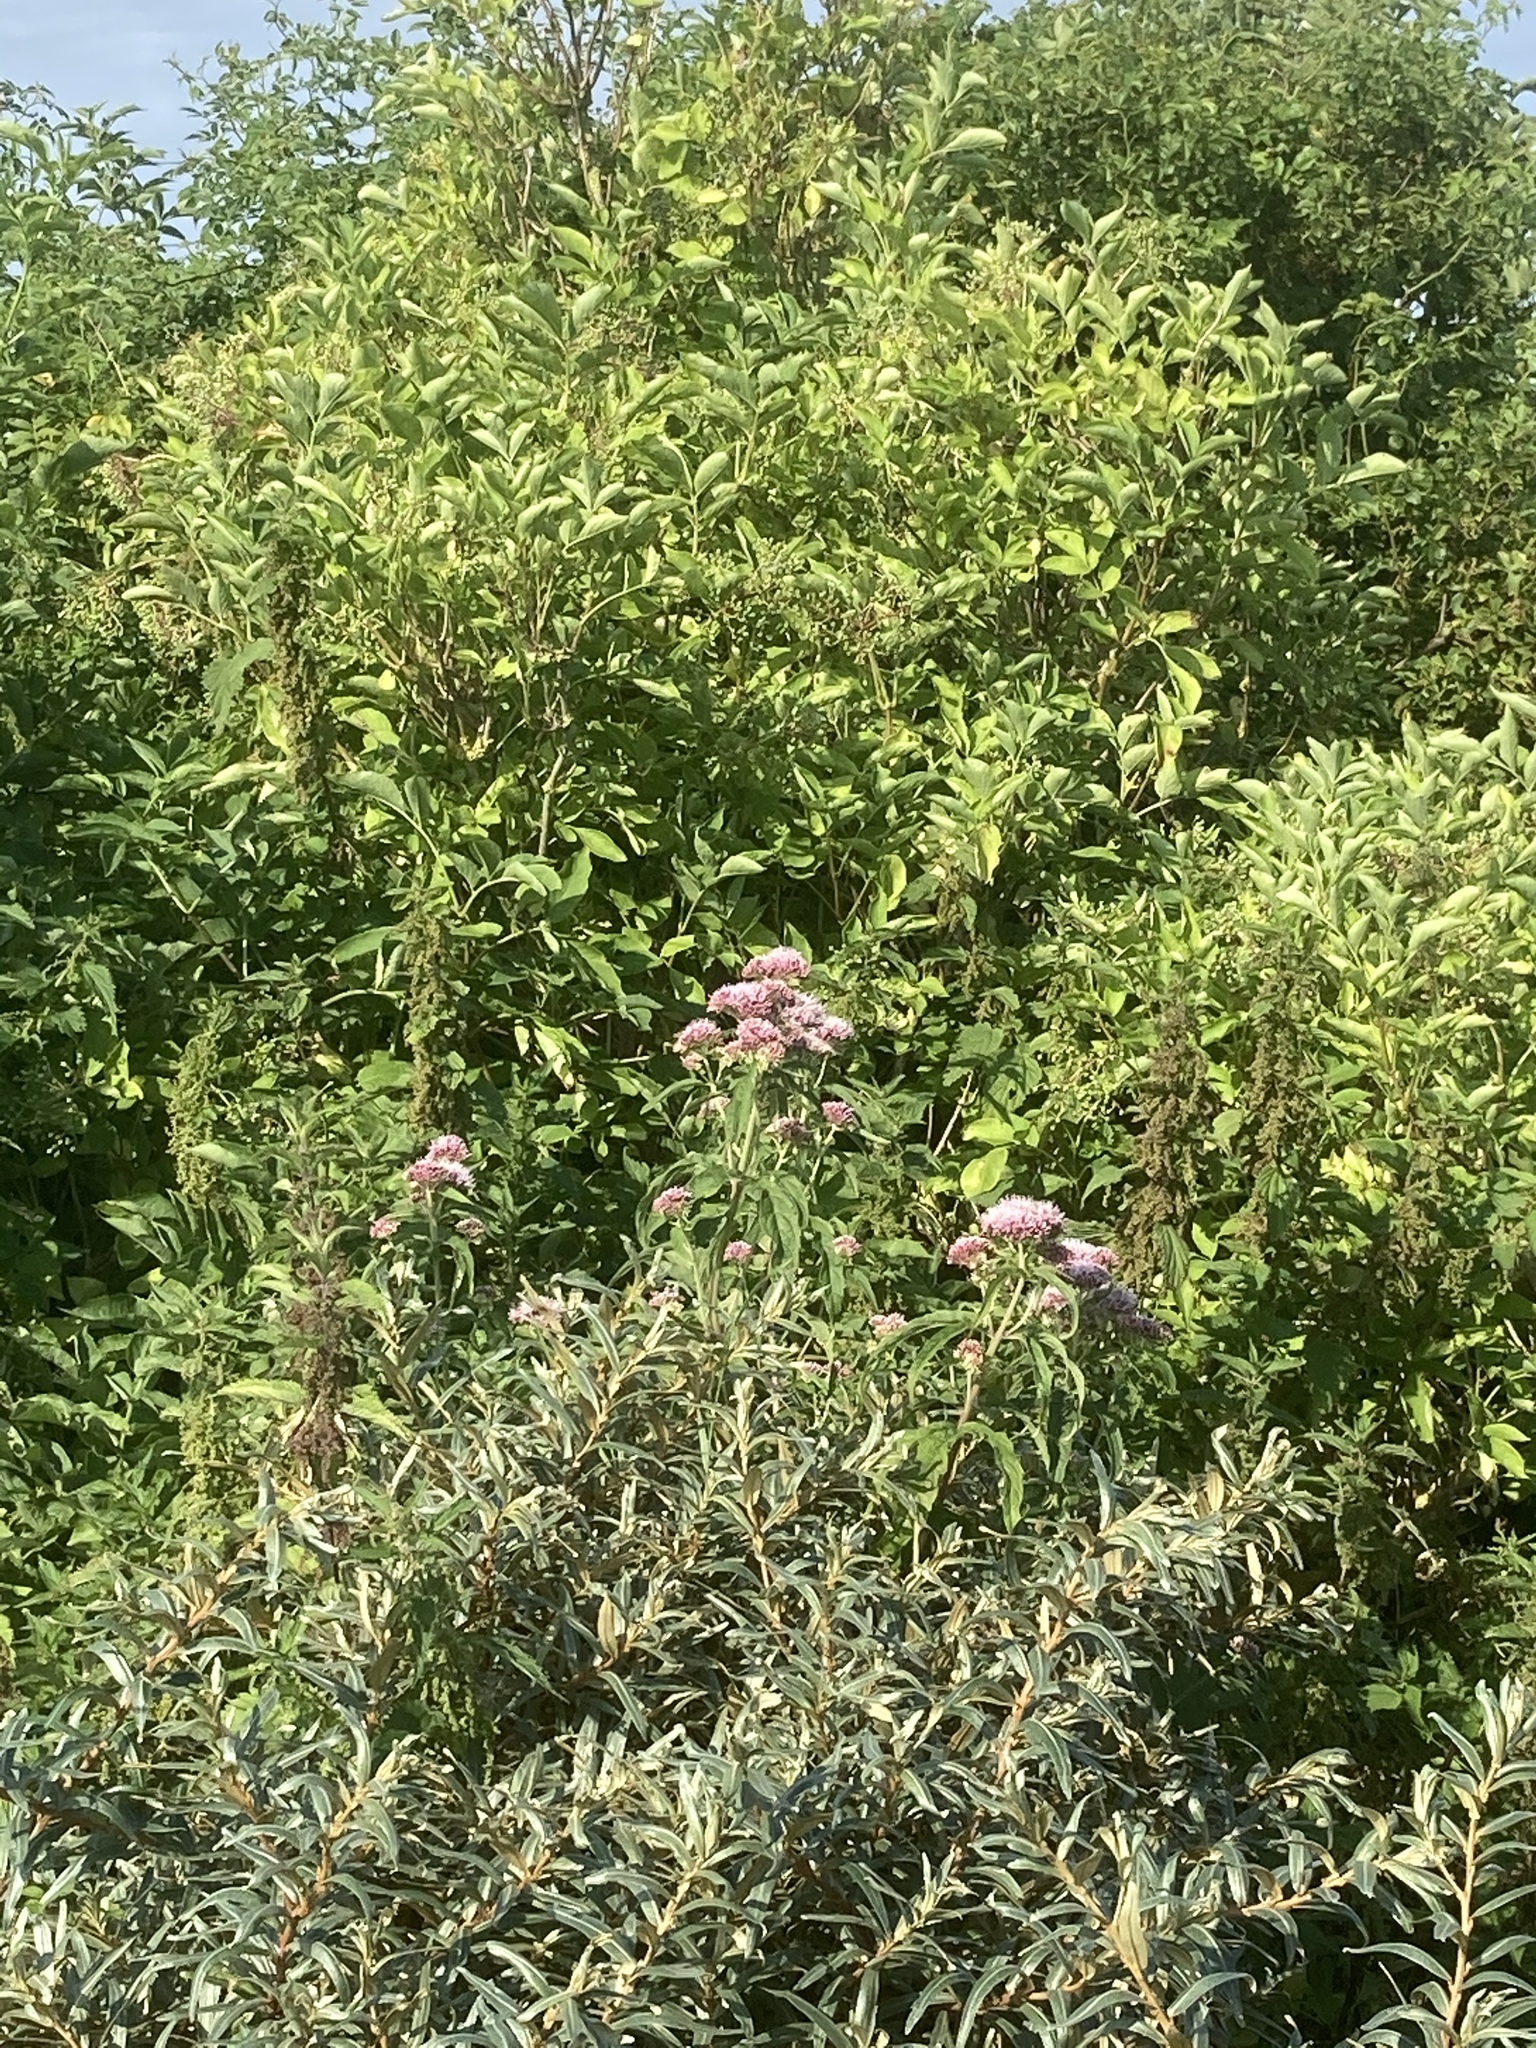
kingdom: Plantae
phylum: Tracheophyta
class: Magnoliopsida
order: Asterales
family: Asteraceae
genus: Eupatorium
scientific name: Eupatorium cannabinum
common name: Hemp-agrimony
